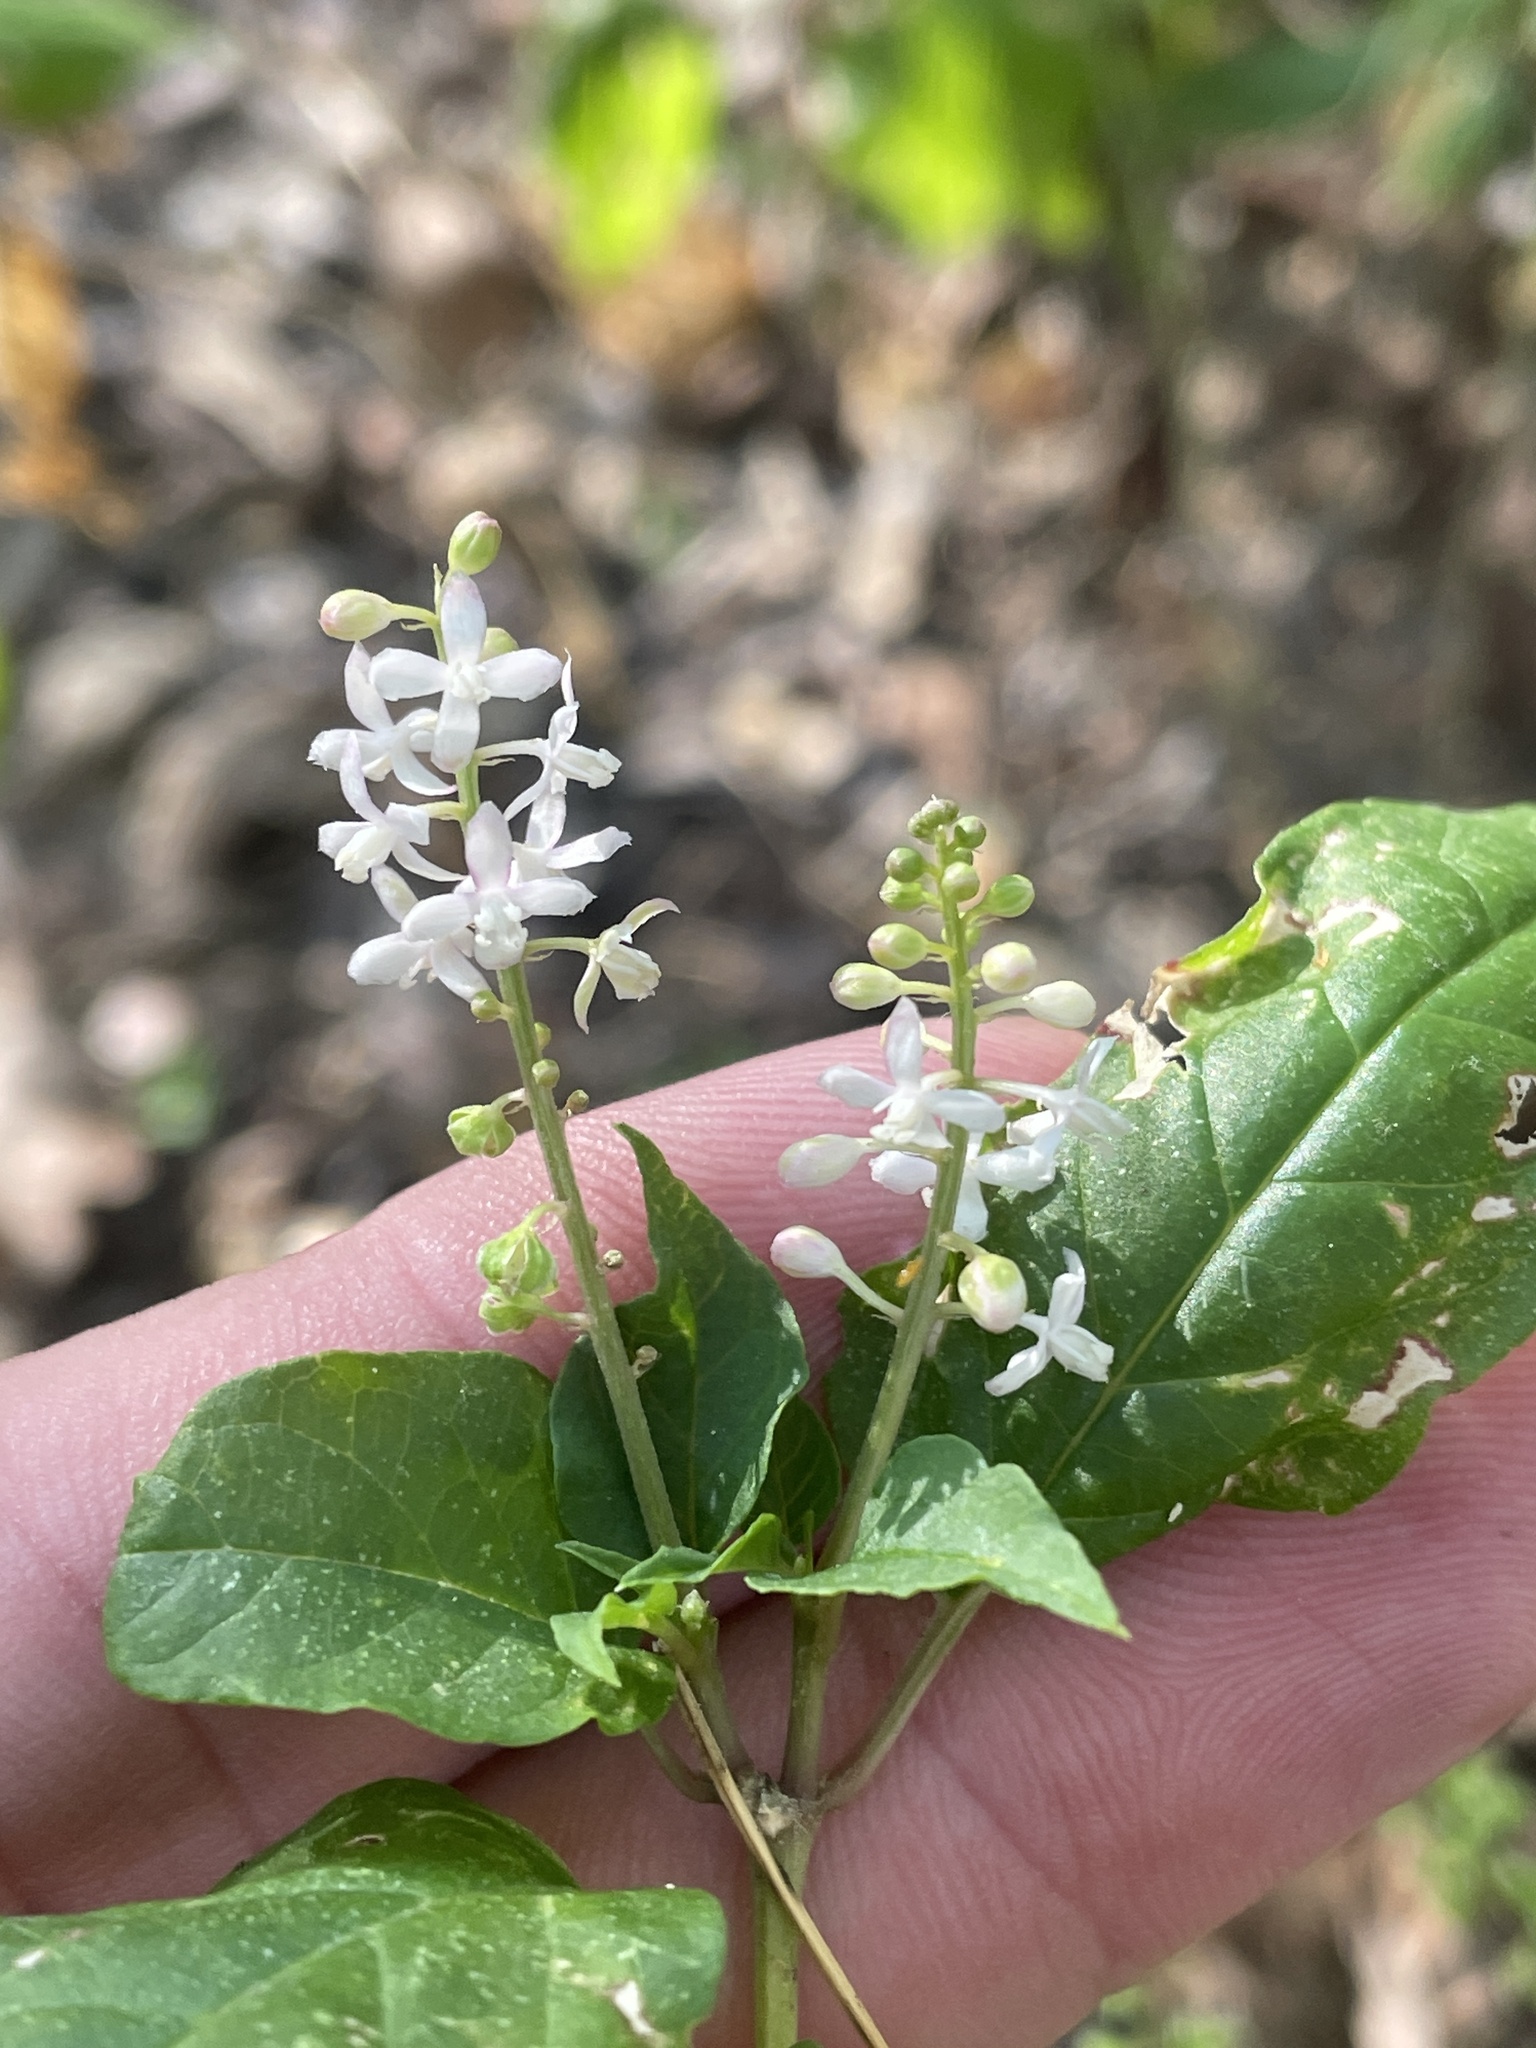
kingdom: Plantae
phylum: Tracheophyta
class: Magnoliopsida
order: Caryophyllales
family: Phytolaccaceae
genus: Rivina
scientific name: Rivina humilis
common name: Rougeplant
